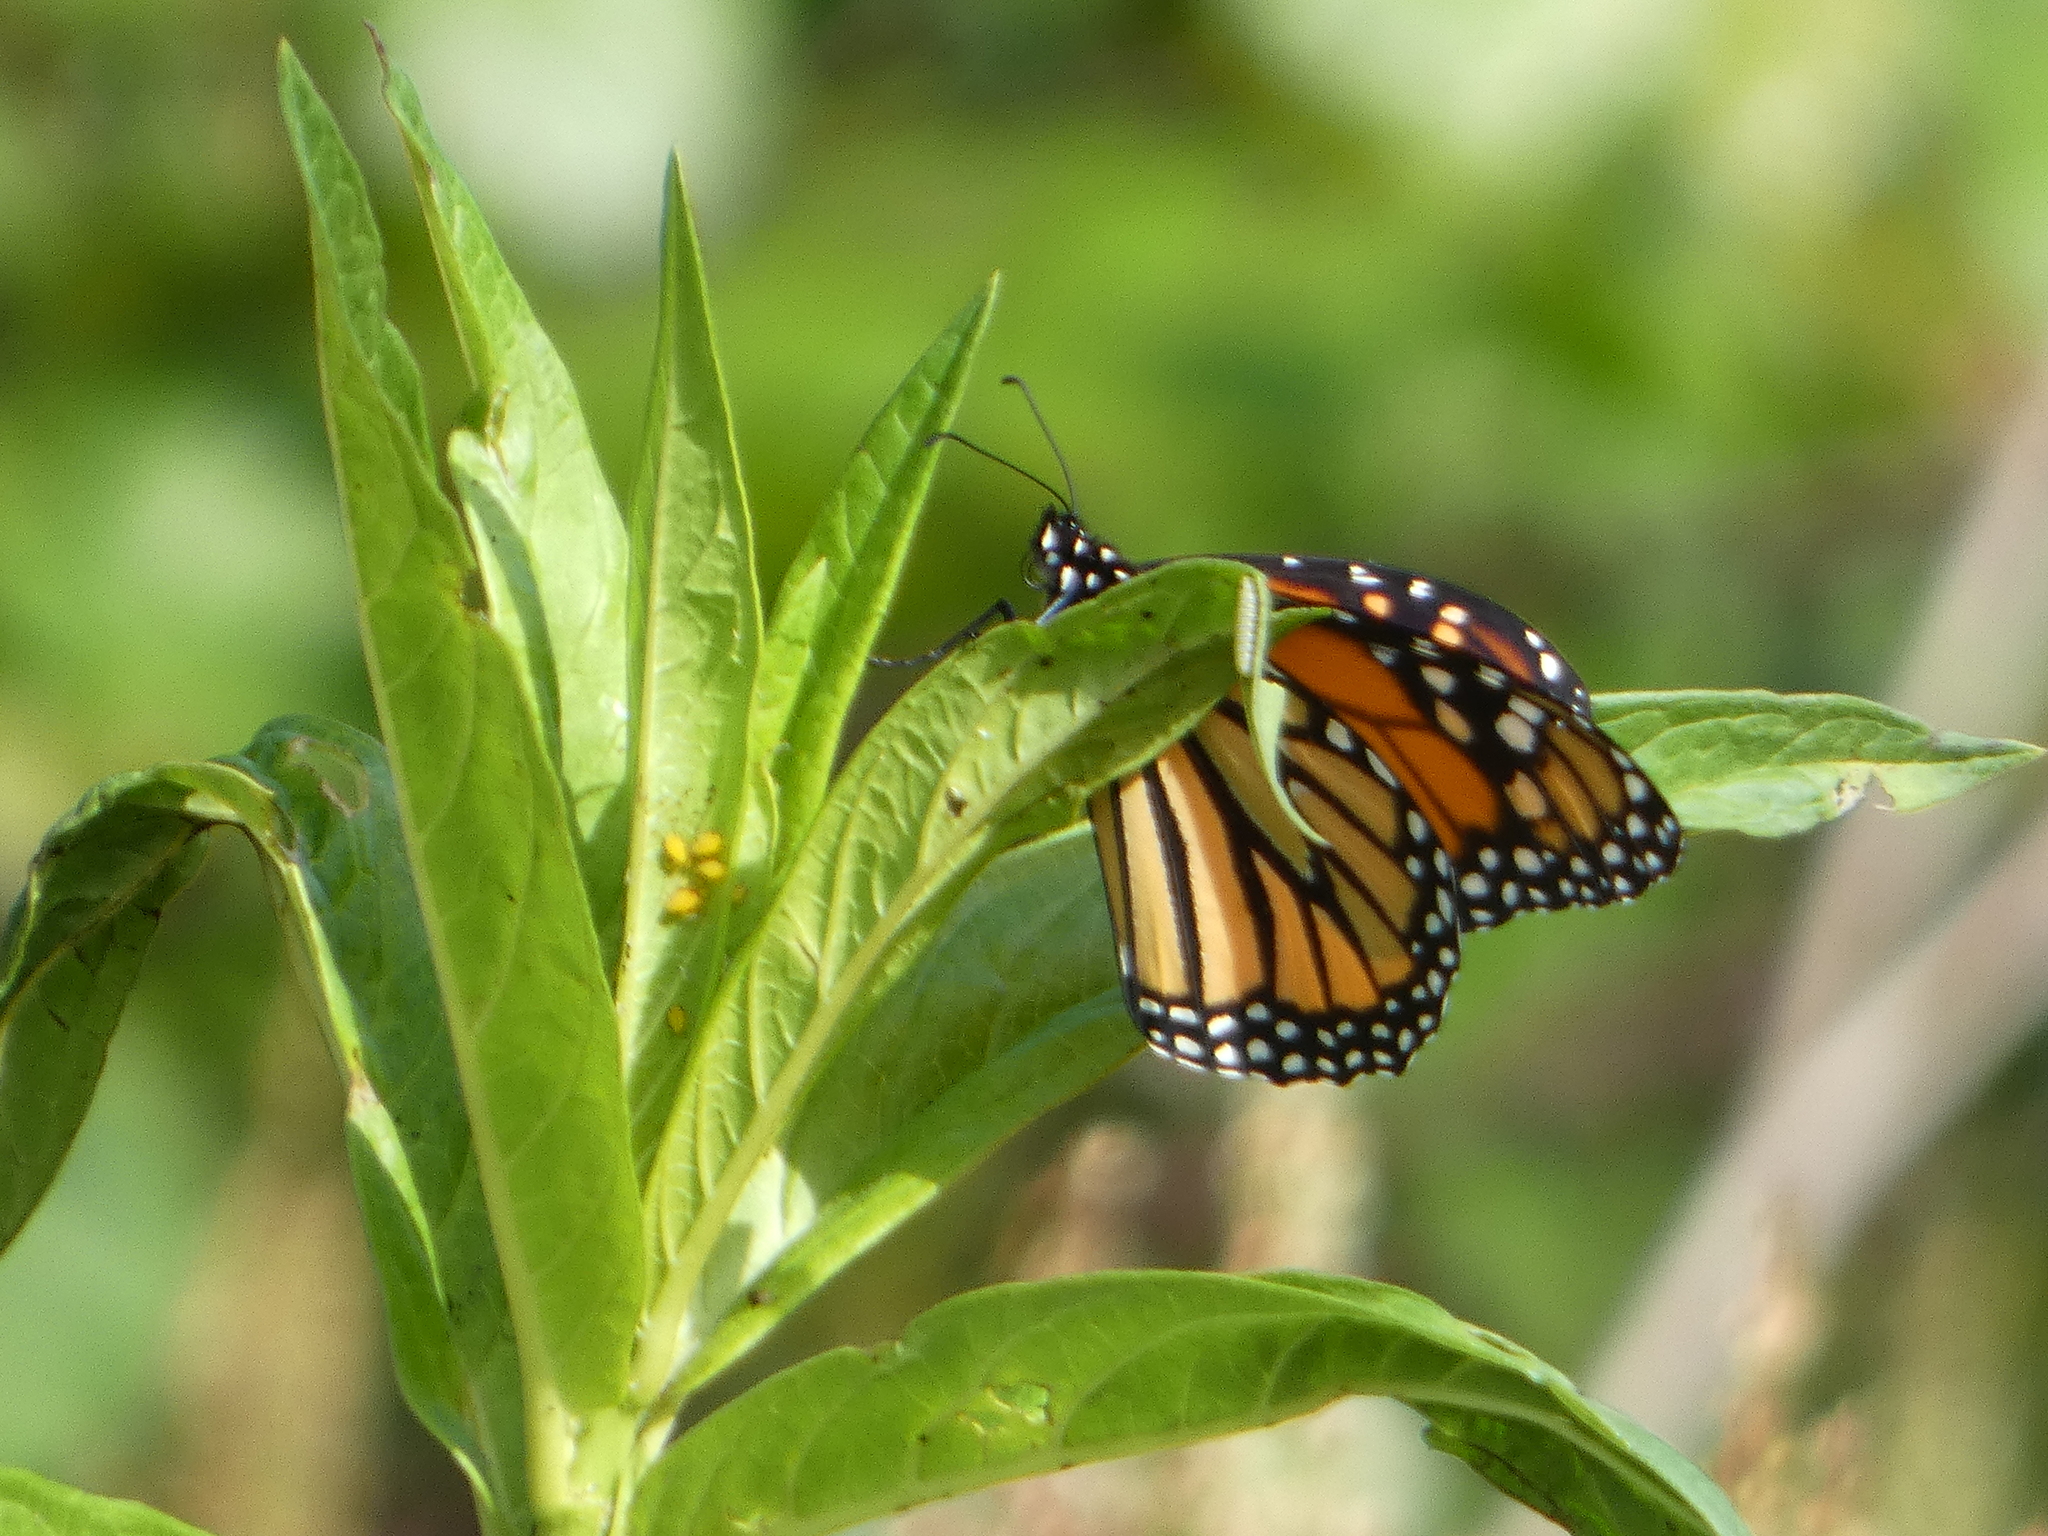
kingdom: Animalia
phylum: Arthropoda
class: Insecta
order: Lepidoptera
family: Nymphalidae
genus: Danaus
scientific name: Danaus plexippus
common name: Monarch
